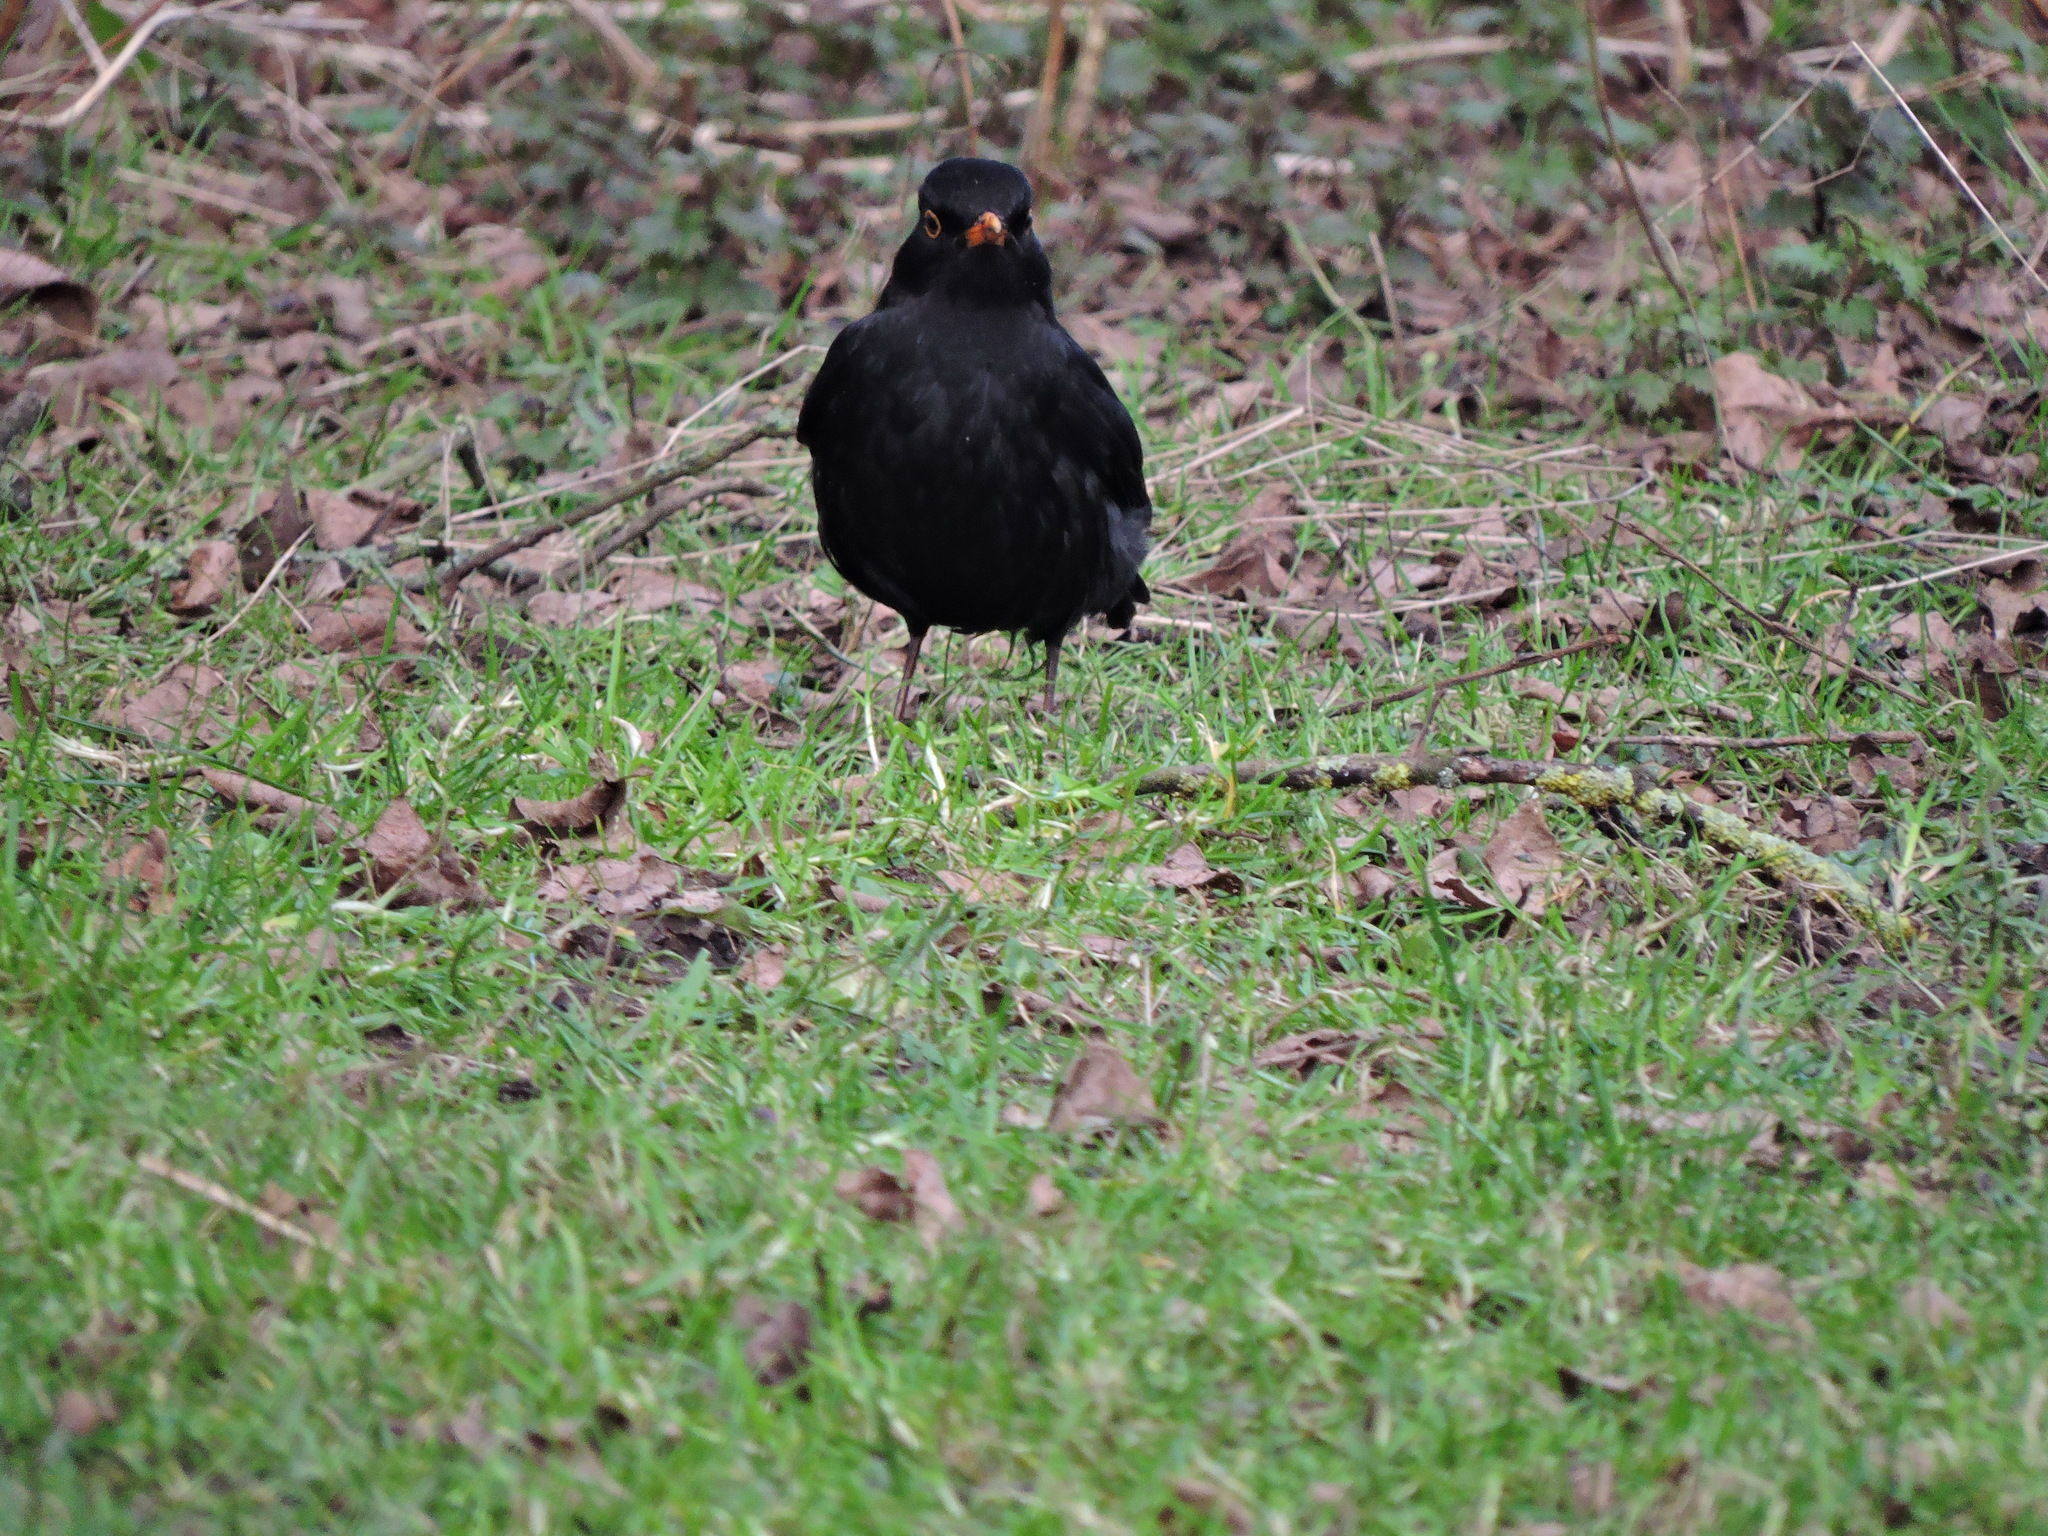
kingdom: Animalia
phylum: Chordata
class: Aves
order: Passeriformes
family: Turdidae
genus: Turdus
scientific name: Turdus merula
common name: Common blackbird
